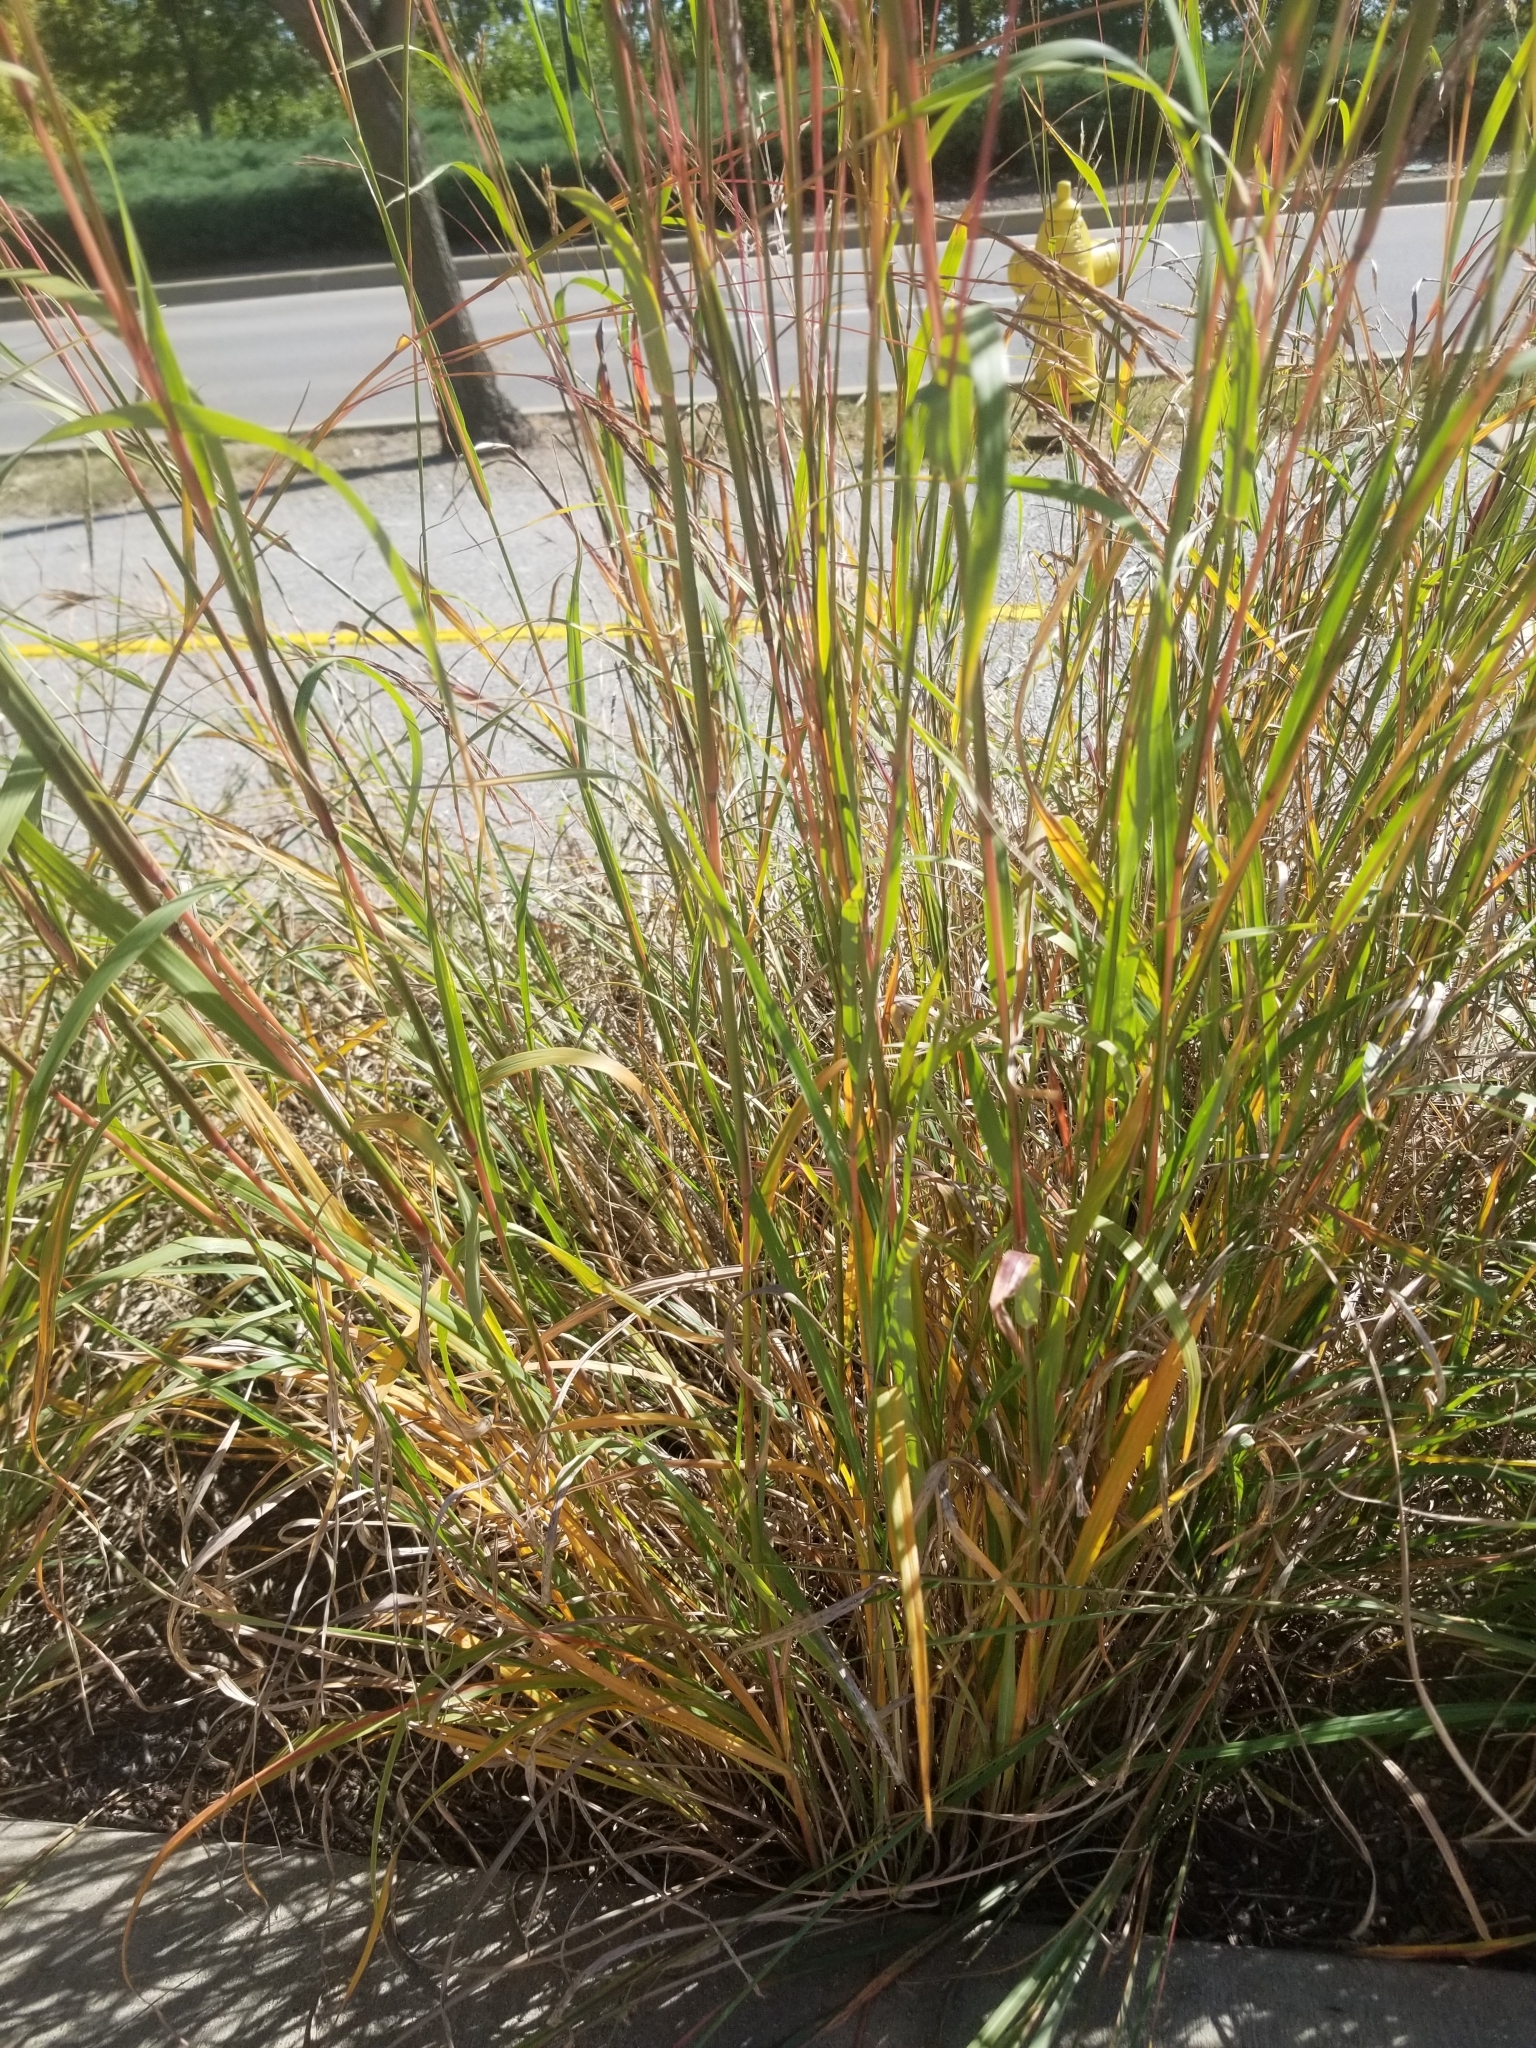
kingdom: Plantae
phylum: Tracheophyta
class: Liliopsida
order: Poales
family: Poaceae
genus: Andropogon
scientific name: Andropogon gerardi
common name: Big bluestem
